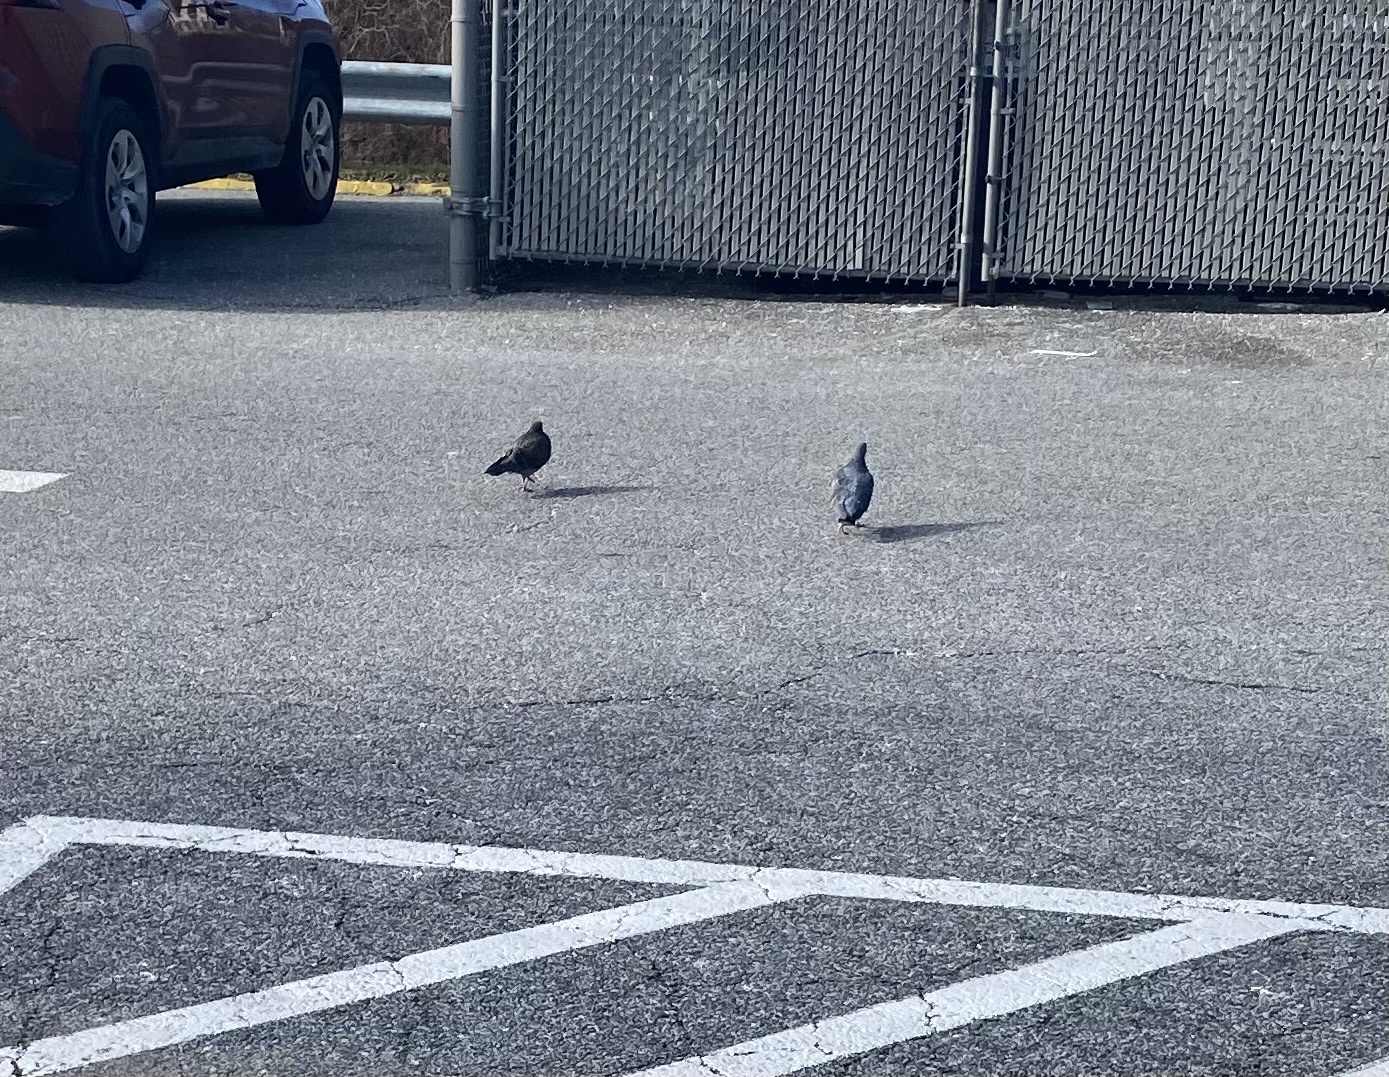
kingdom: Animalia
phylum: Chordata
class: Aves
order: Columbiformes
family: Columbidae
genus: Columba
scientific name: Columba livia
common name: Rock pigeon
